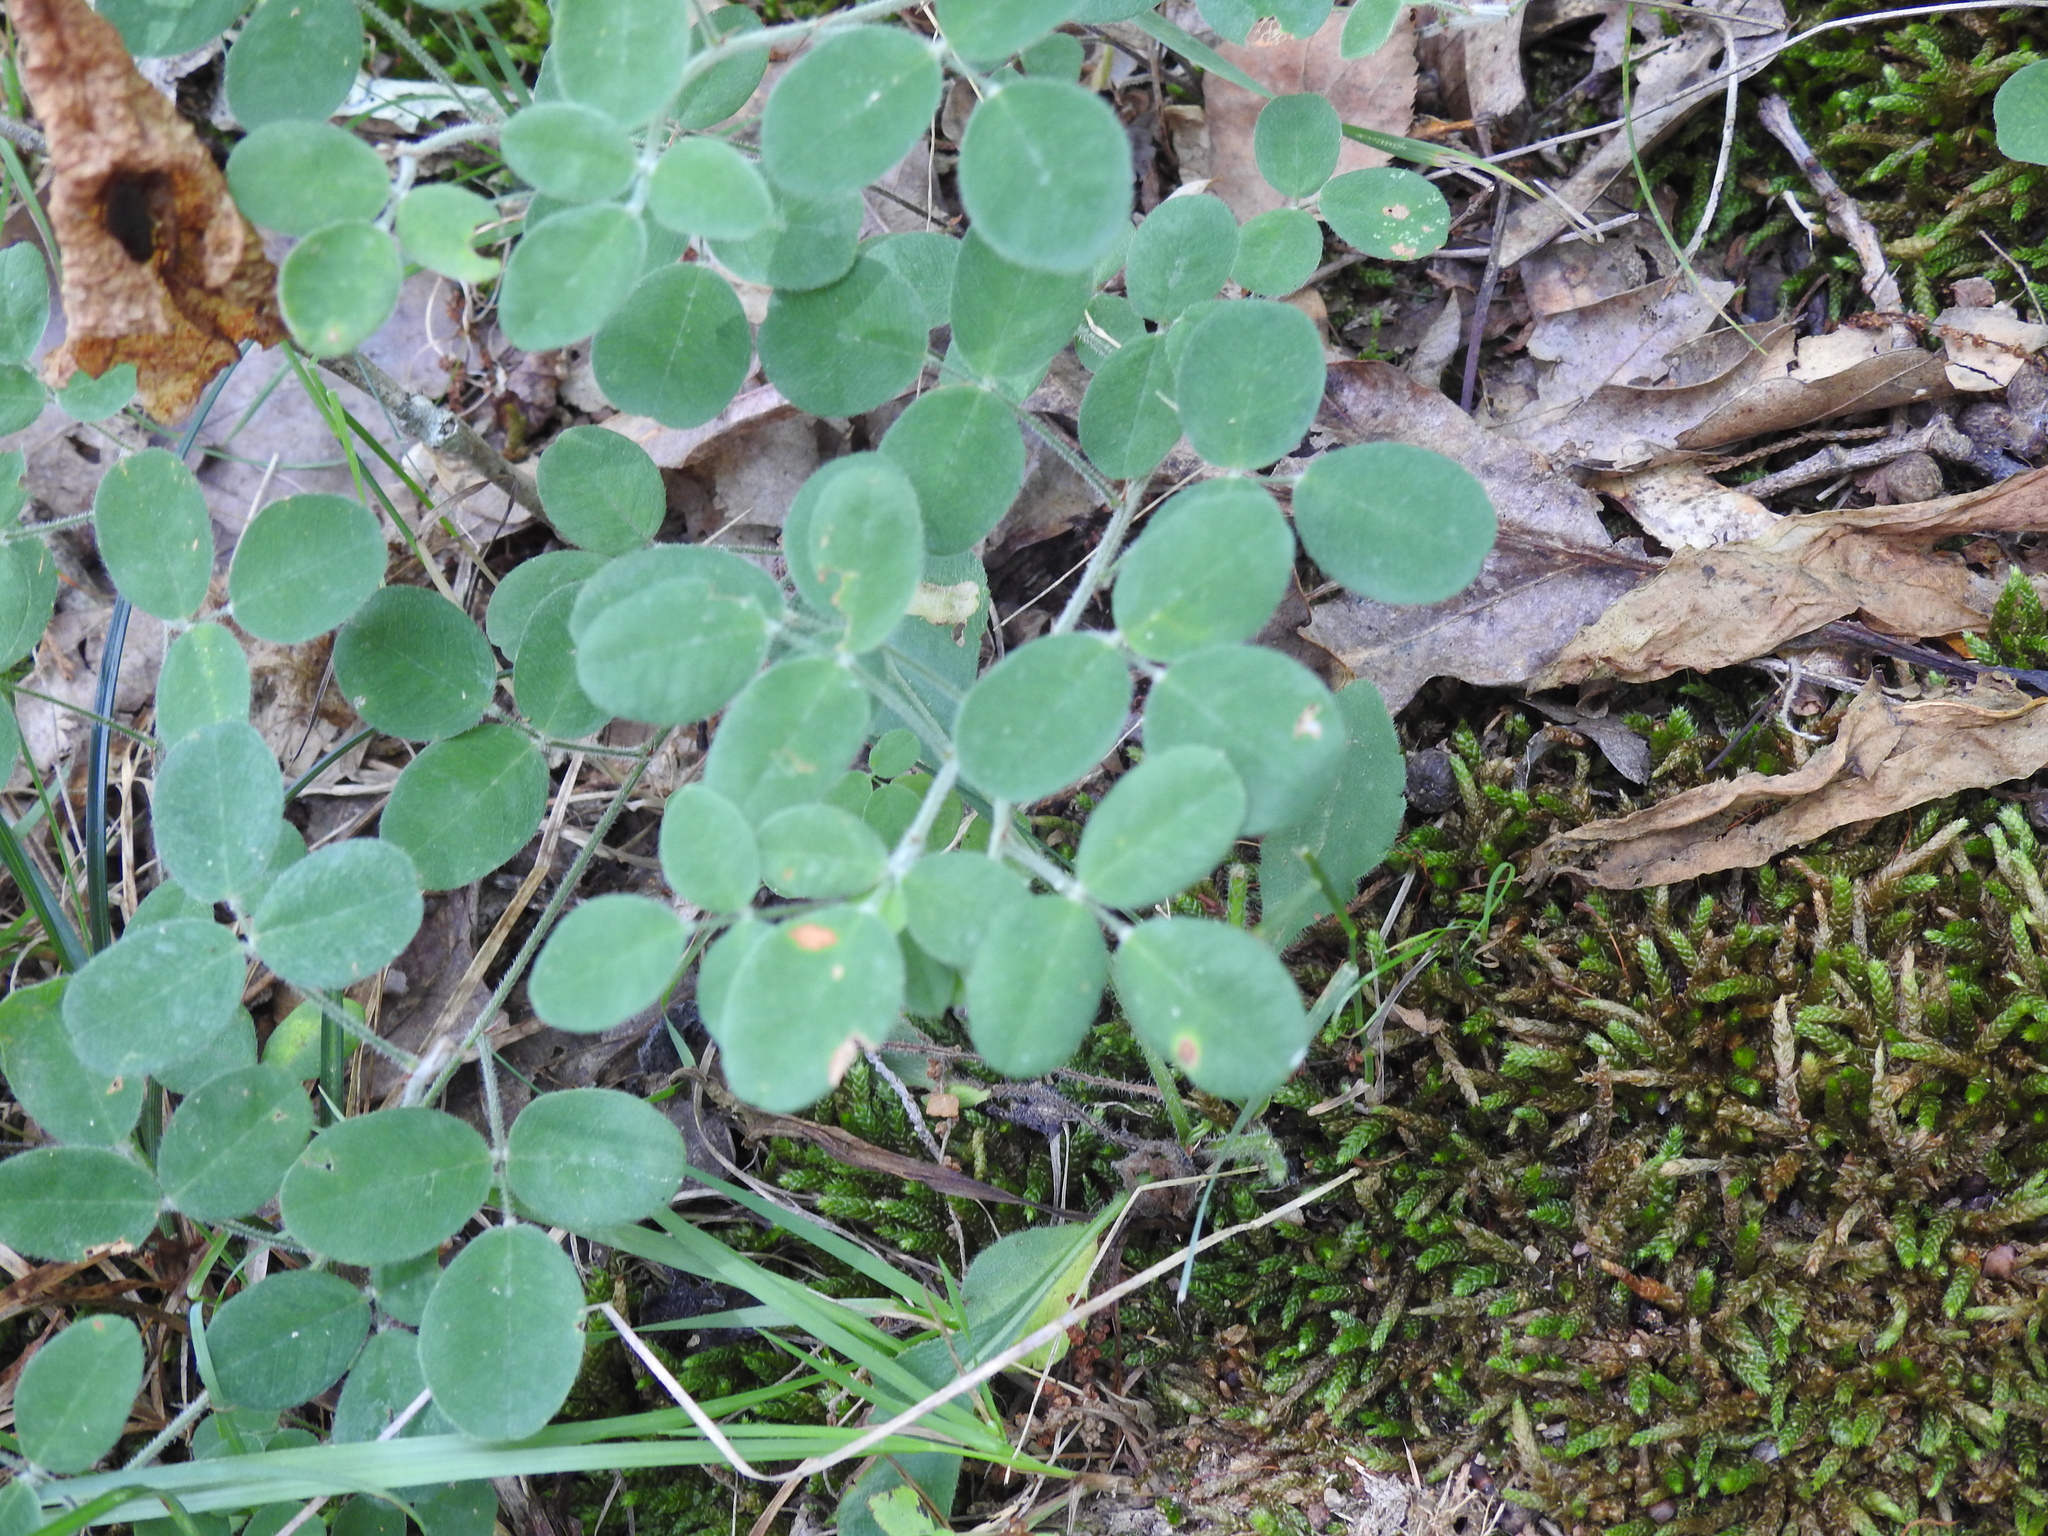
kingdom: Plantae
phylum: Tracheophyta
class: Magnoliopsida
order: Fabales
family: Fabaceae
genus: Lespedeza
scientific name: Lespedeza procumbens
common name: Downy trailing bush-clover
